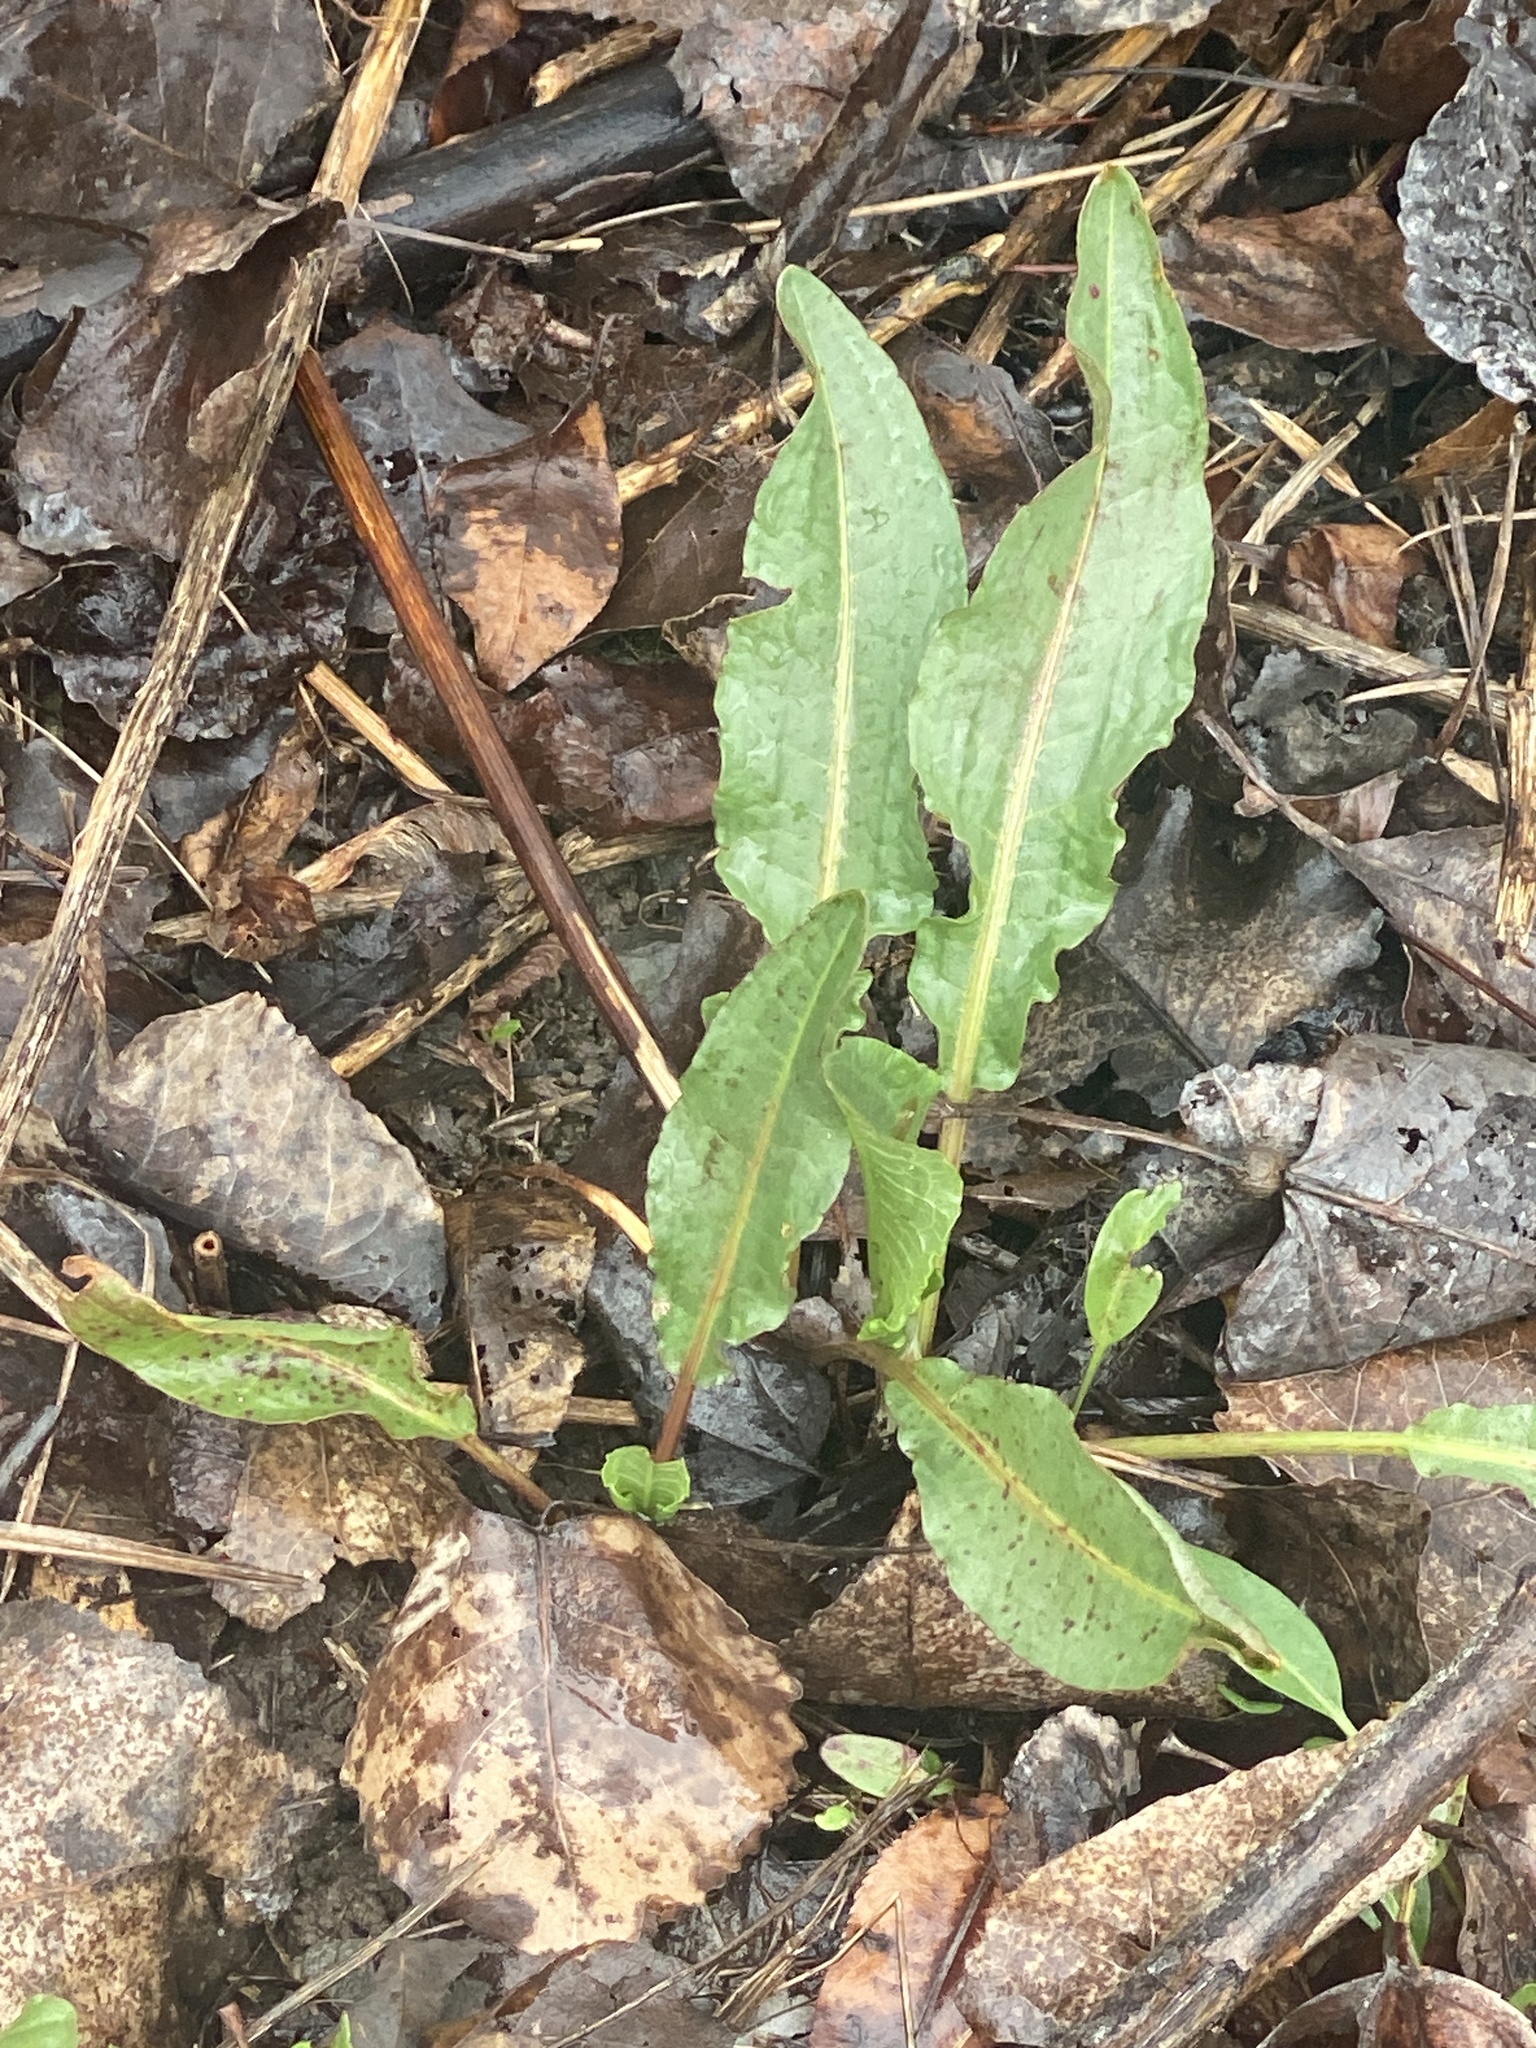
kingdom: Plantae
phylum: Tracheophyta
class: Magnoliopsida
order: Caryophyllales
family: Polygonaceae
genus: Rumex
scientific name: Rumex crispus
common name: Curled dock
